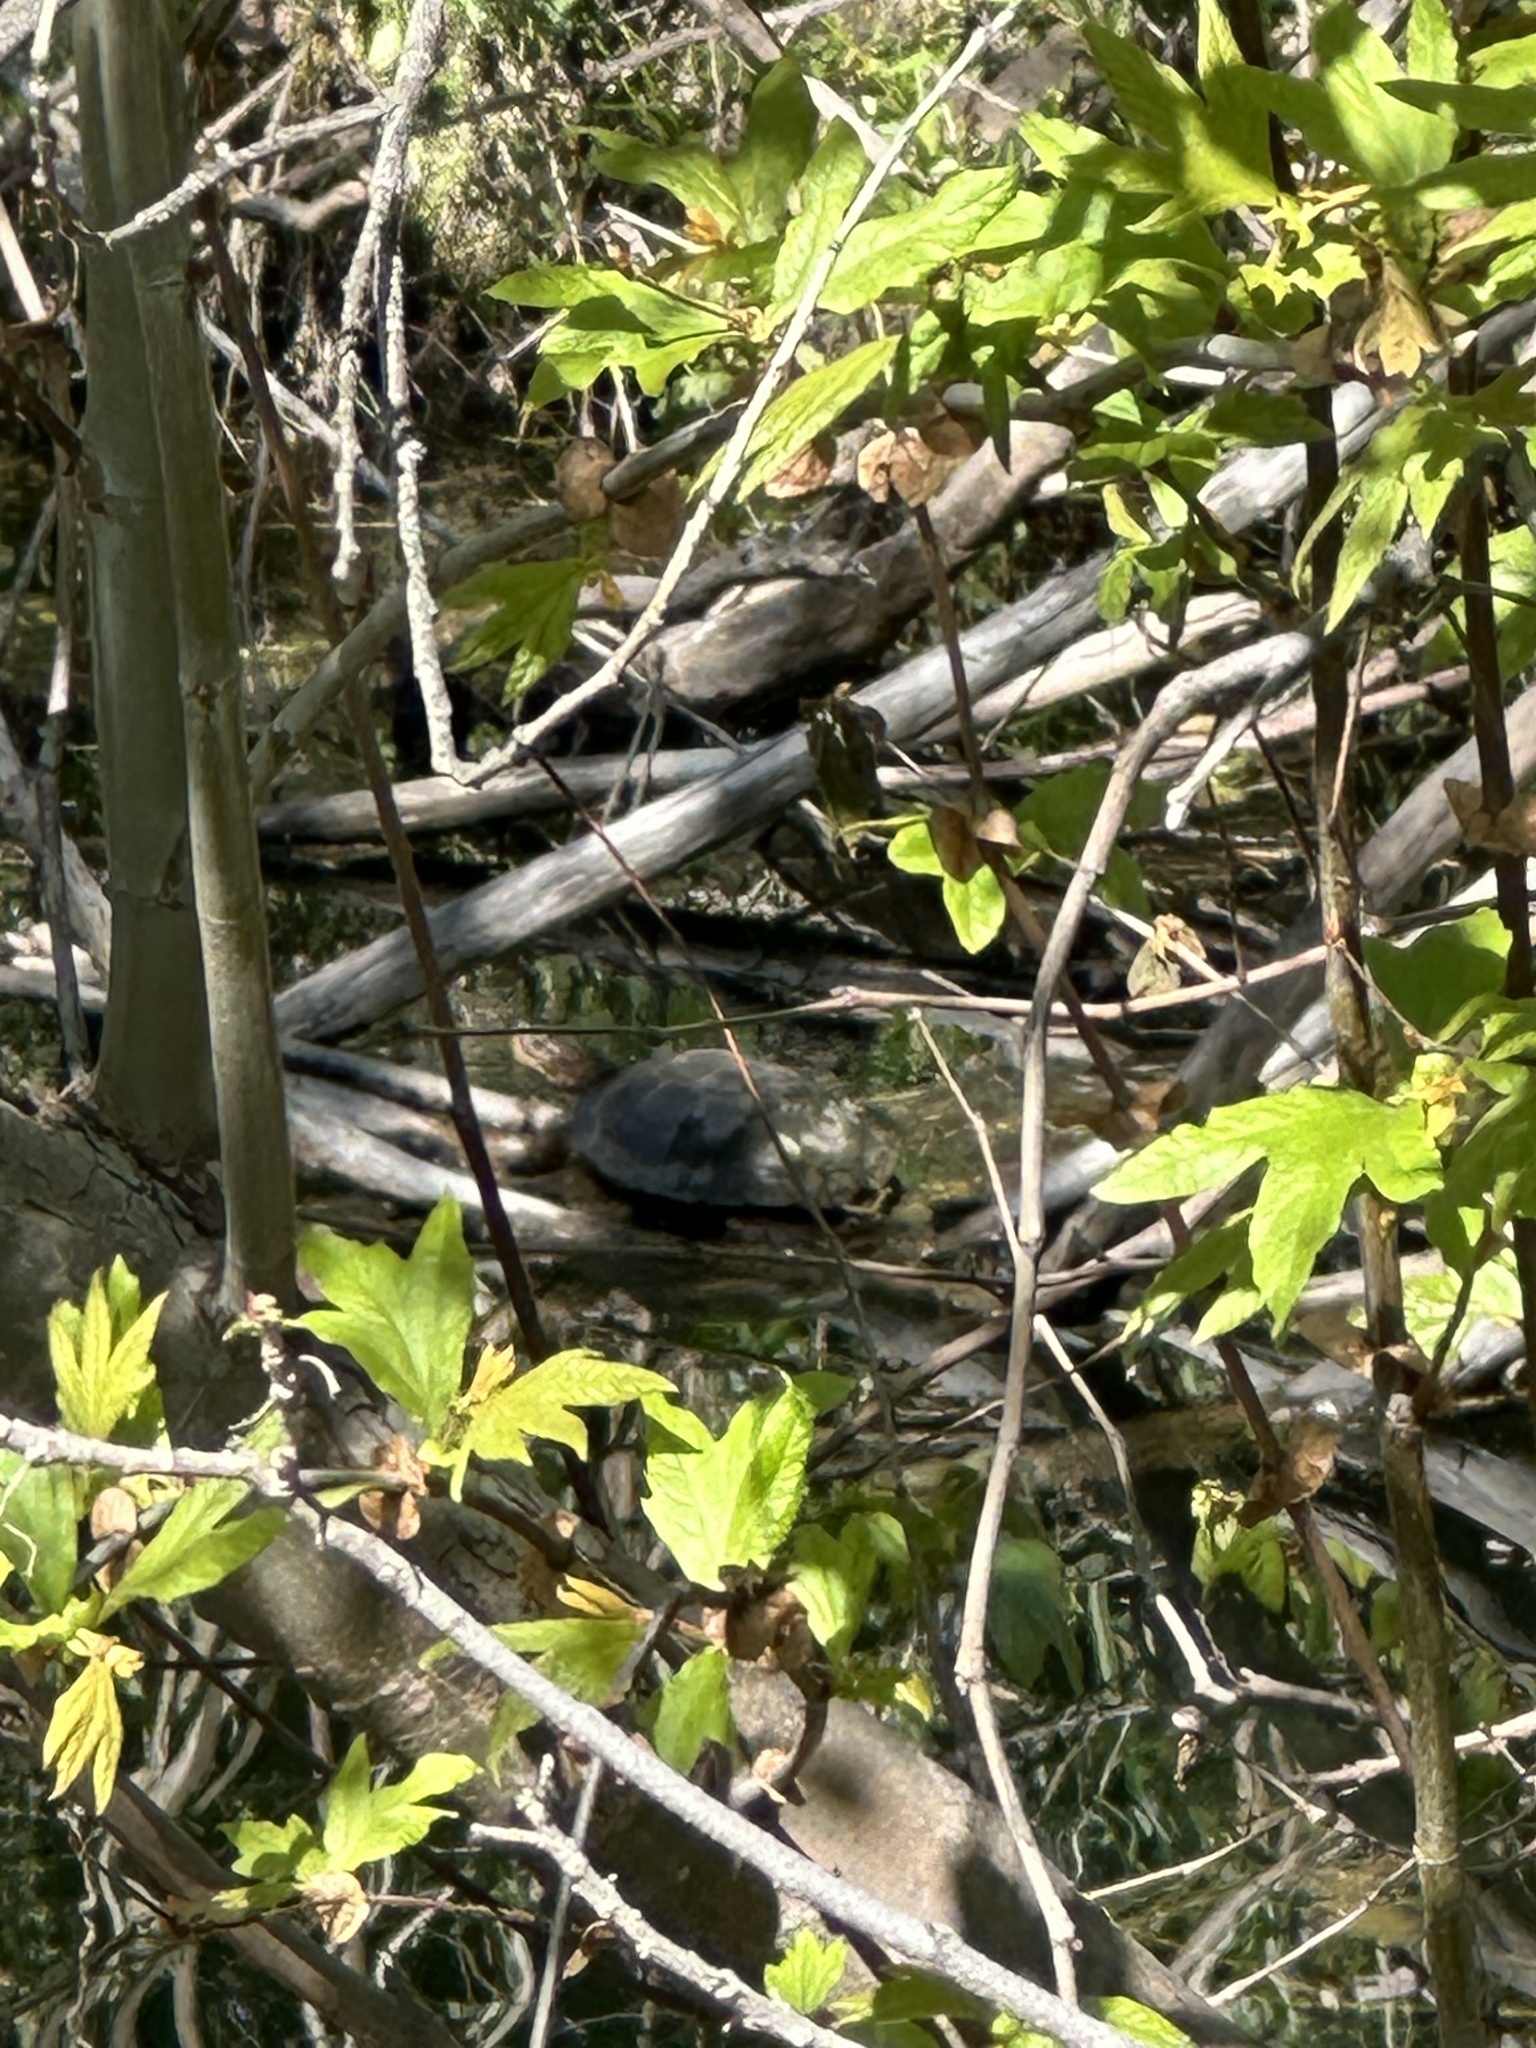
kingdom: Animalia
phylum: Chordata
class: Testudines
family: Emydidae
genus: Actinemys
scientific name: Actinemys marmorata
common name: Western pond turtle
